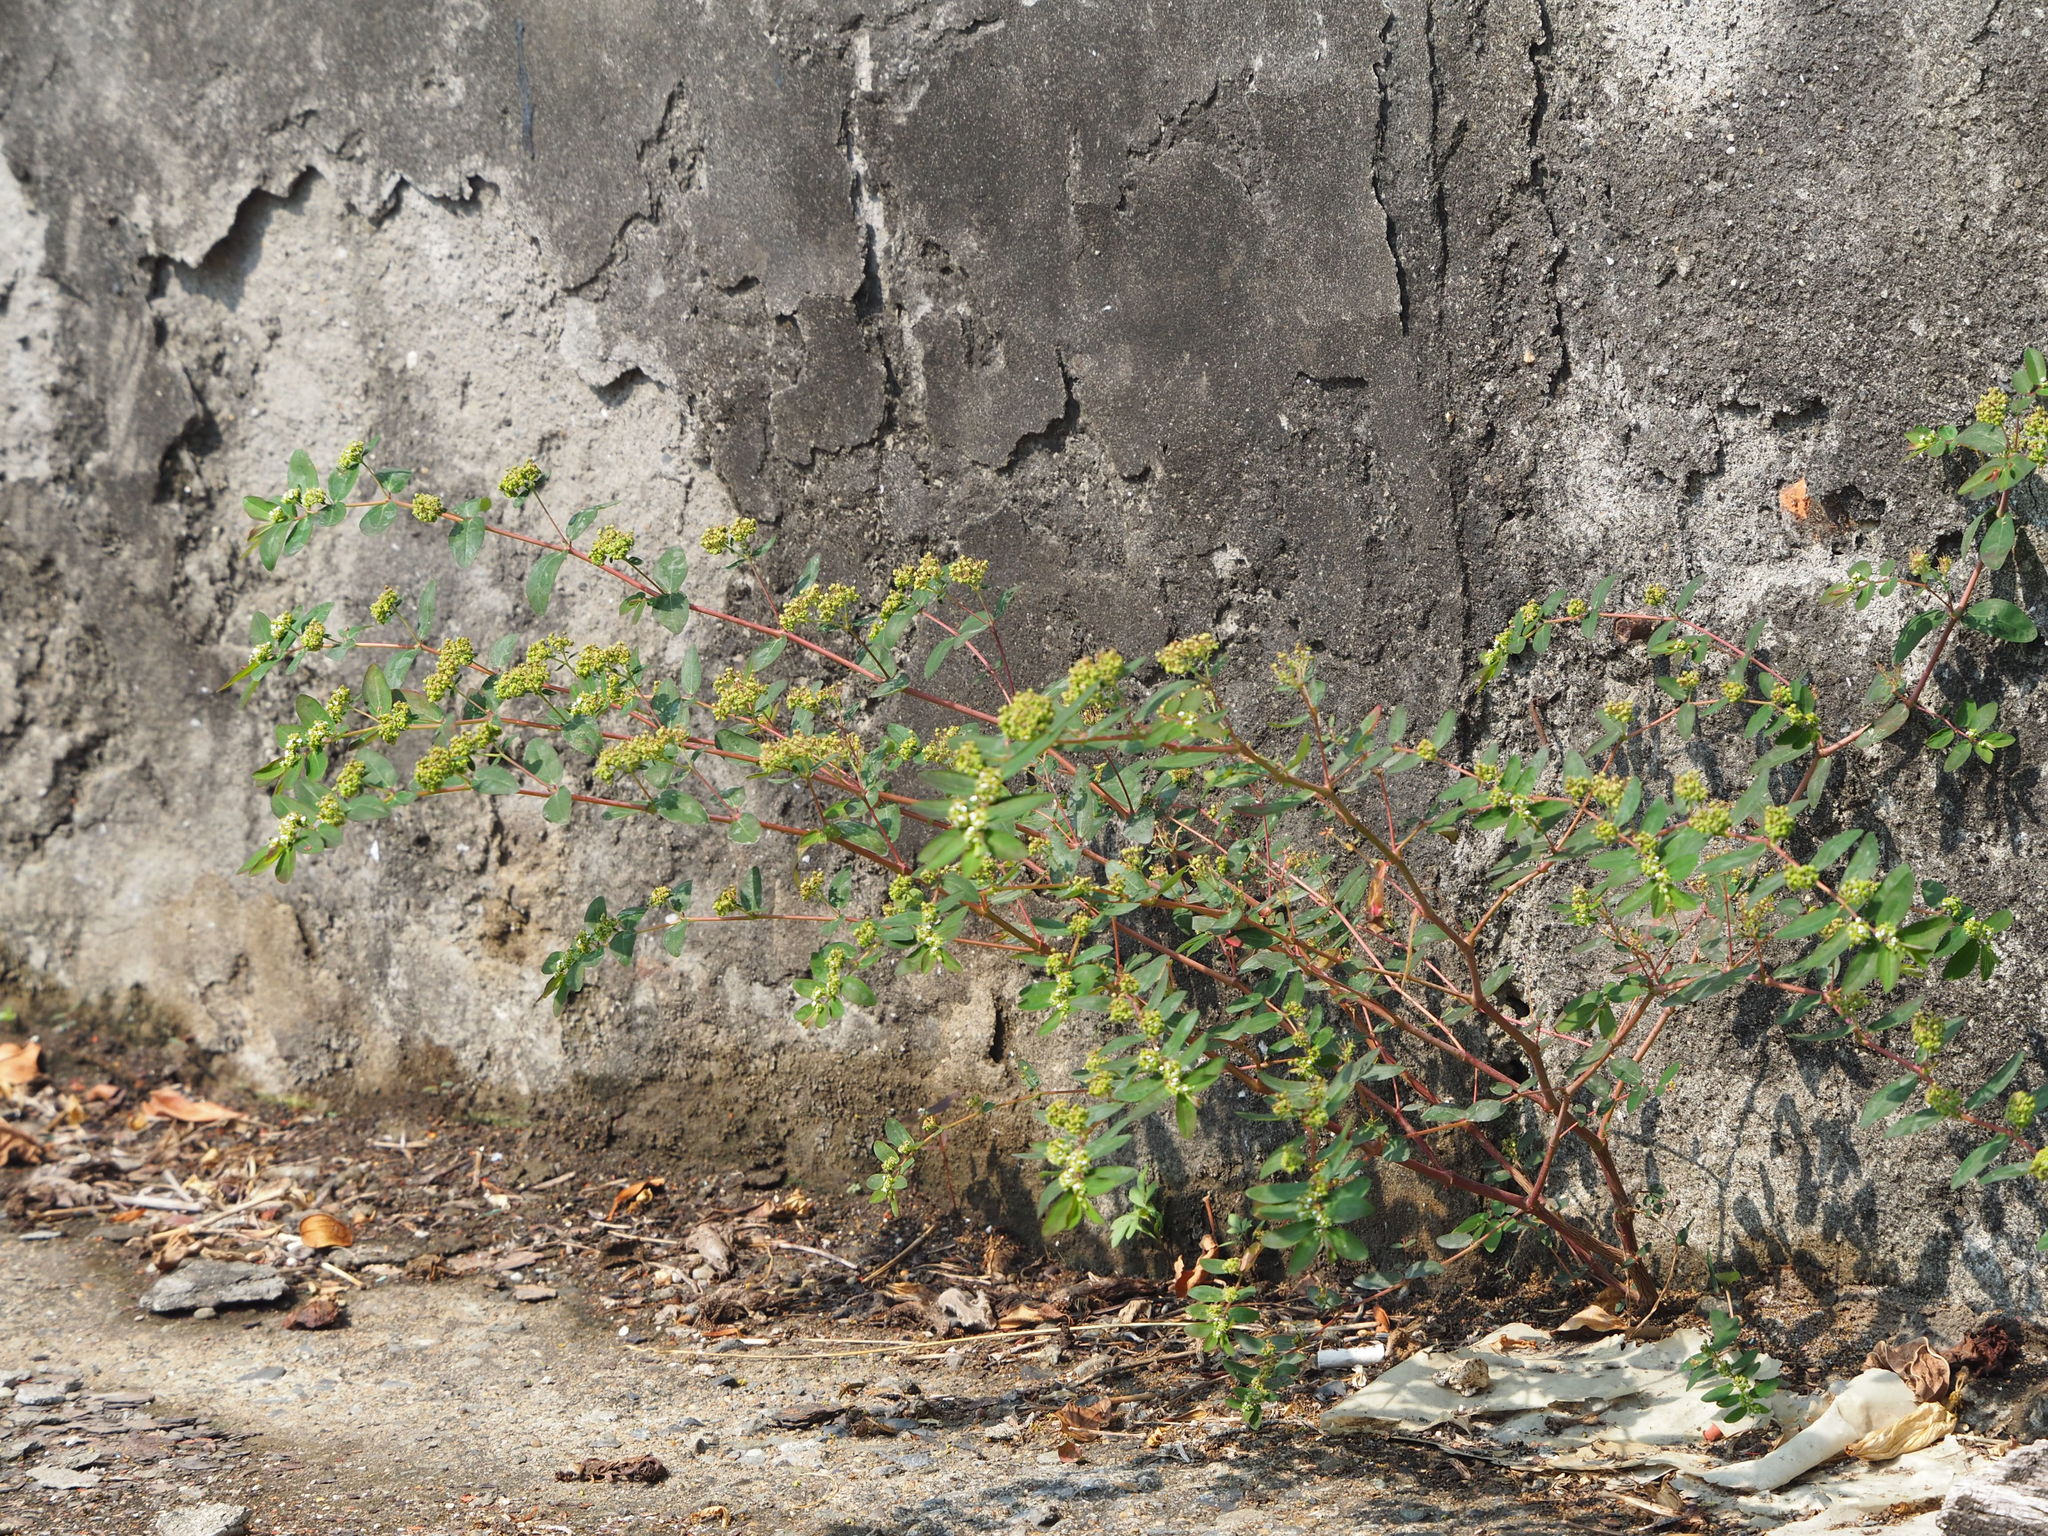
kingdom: Plantae
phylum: Tracheophyta
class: Magnoliopsida
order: Malpighiales
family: Euphorbiaceae
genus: Euphorbia
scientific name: Euphorbia hypericifolia
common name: Graceful sandmat
